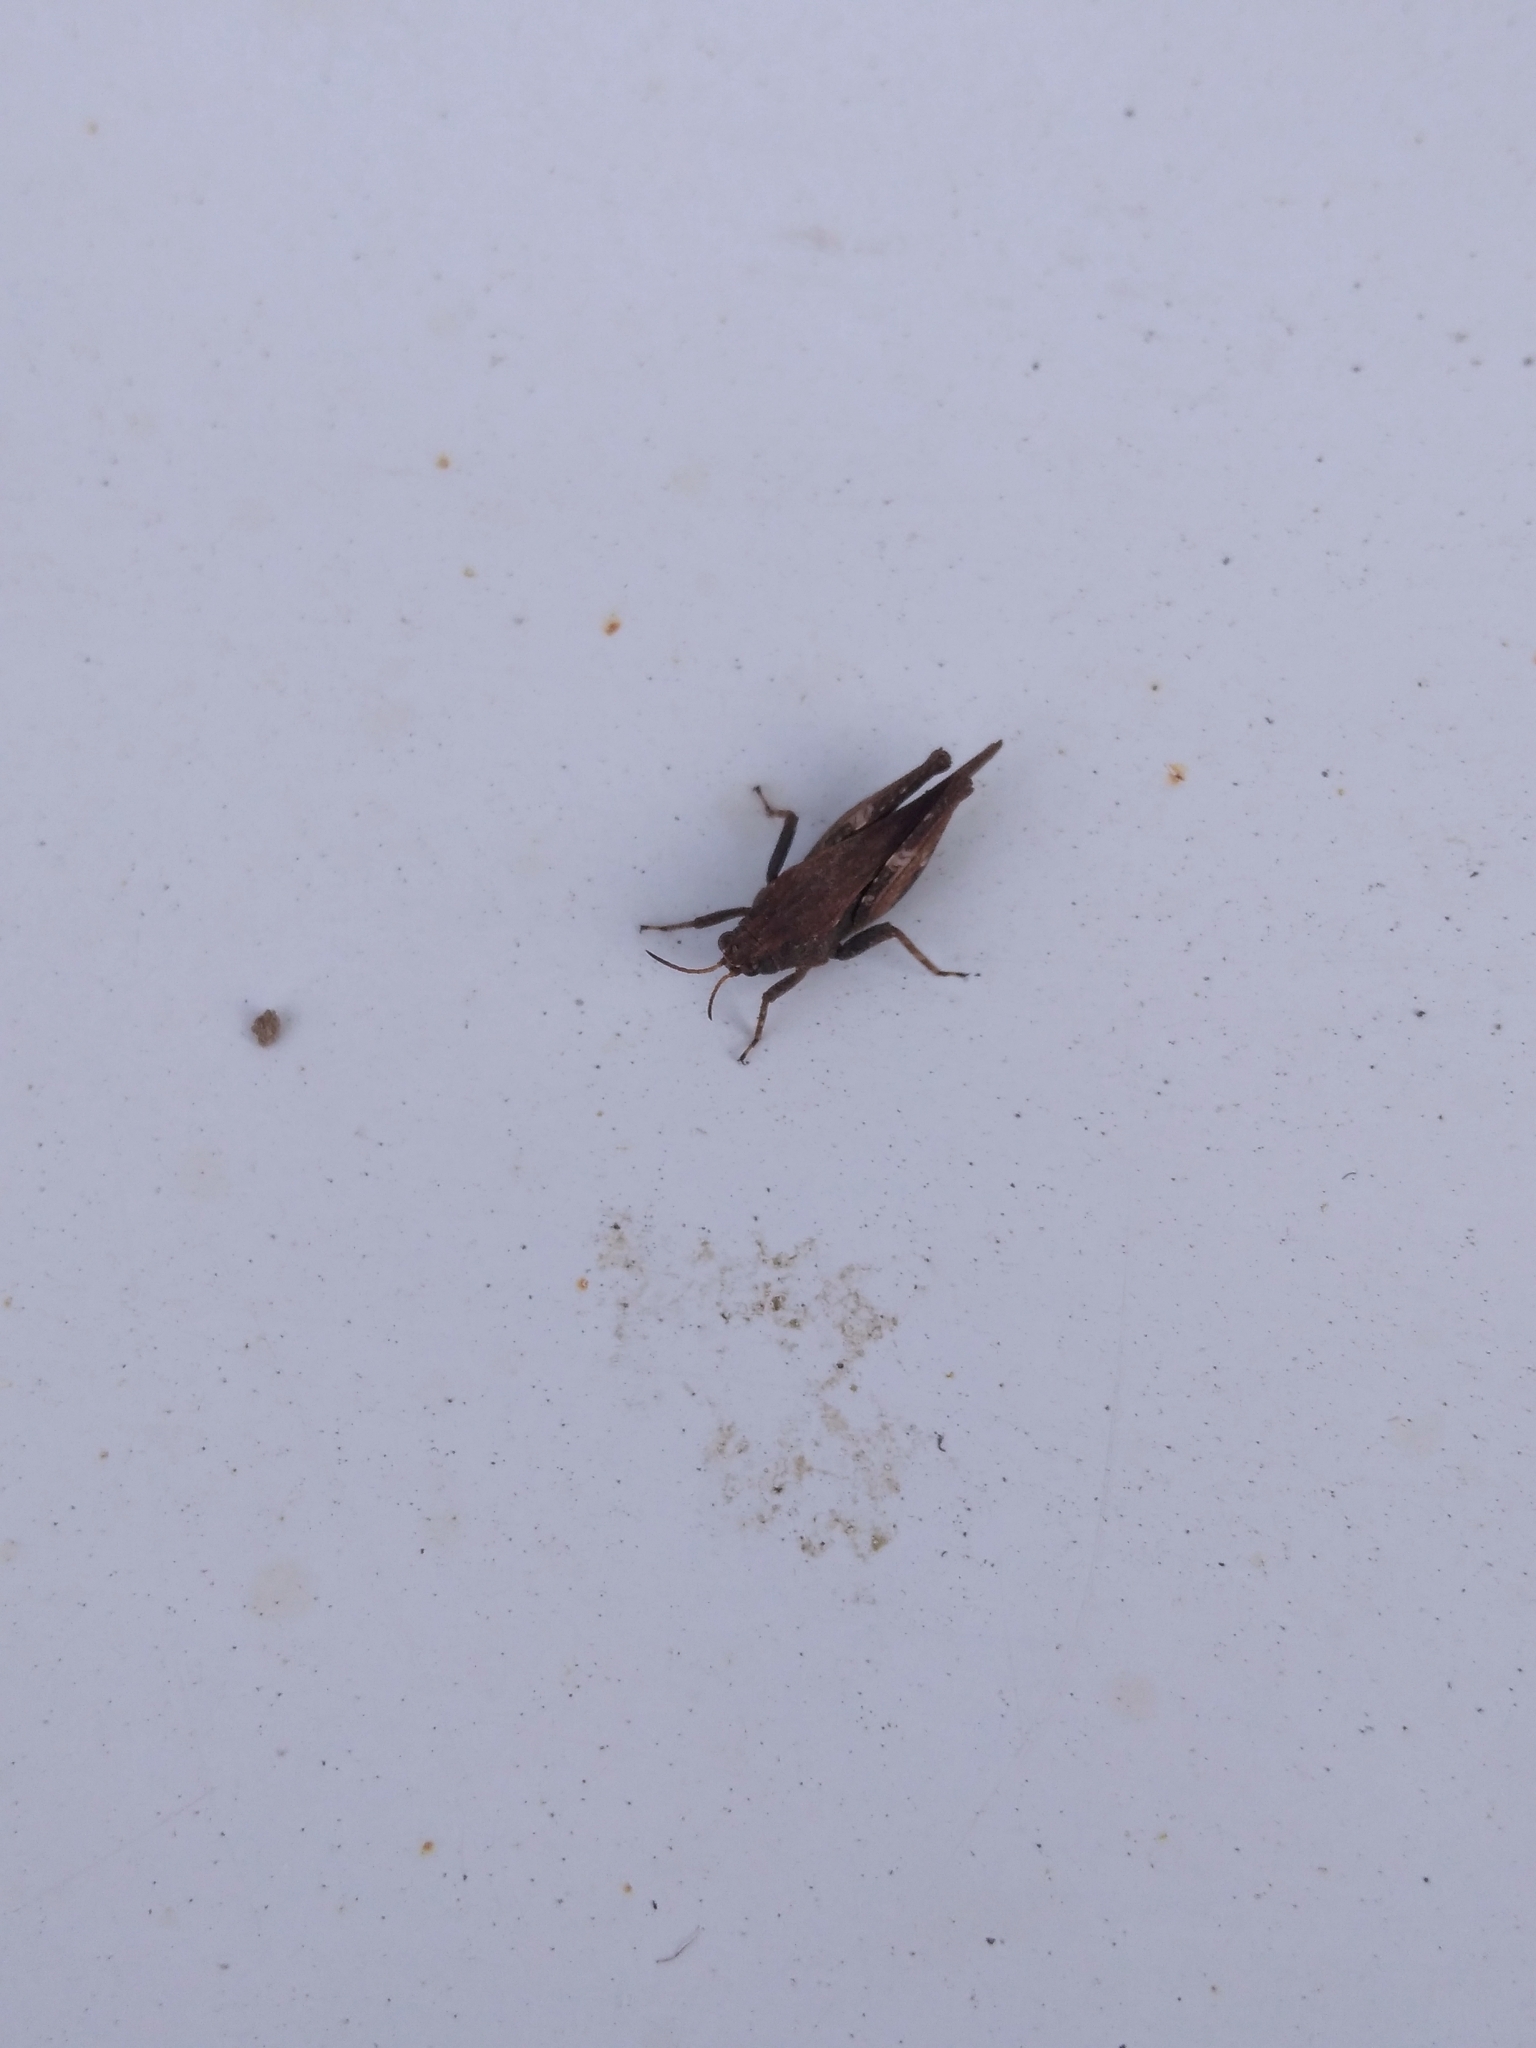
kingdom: Animalia
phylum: Arthropoda
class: Insecta
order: Orthoptera
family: Tetrigidae
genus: Tetrix
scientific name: Tetrix subulata
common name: Slender ground-hopper
